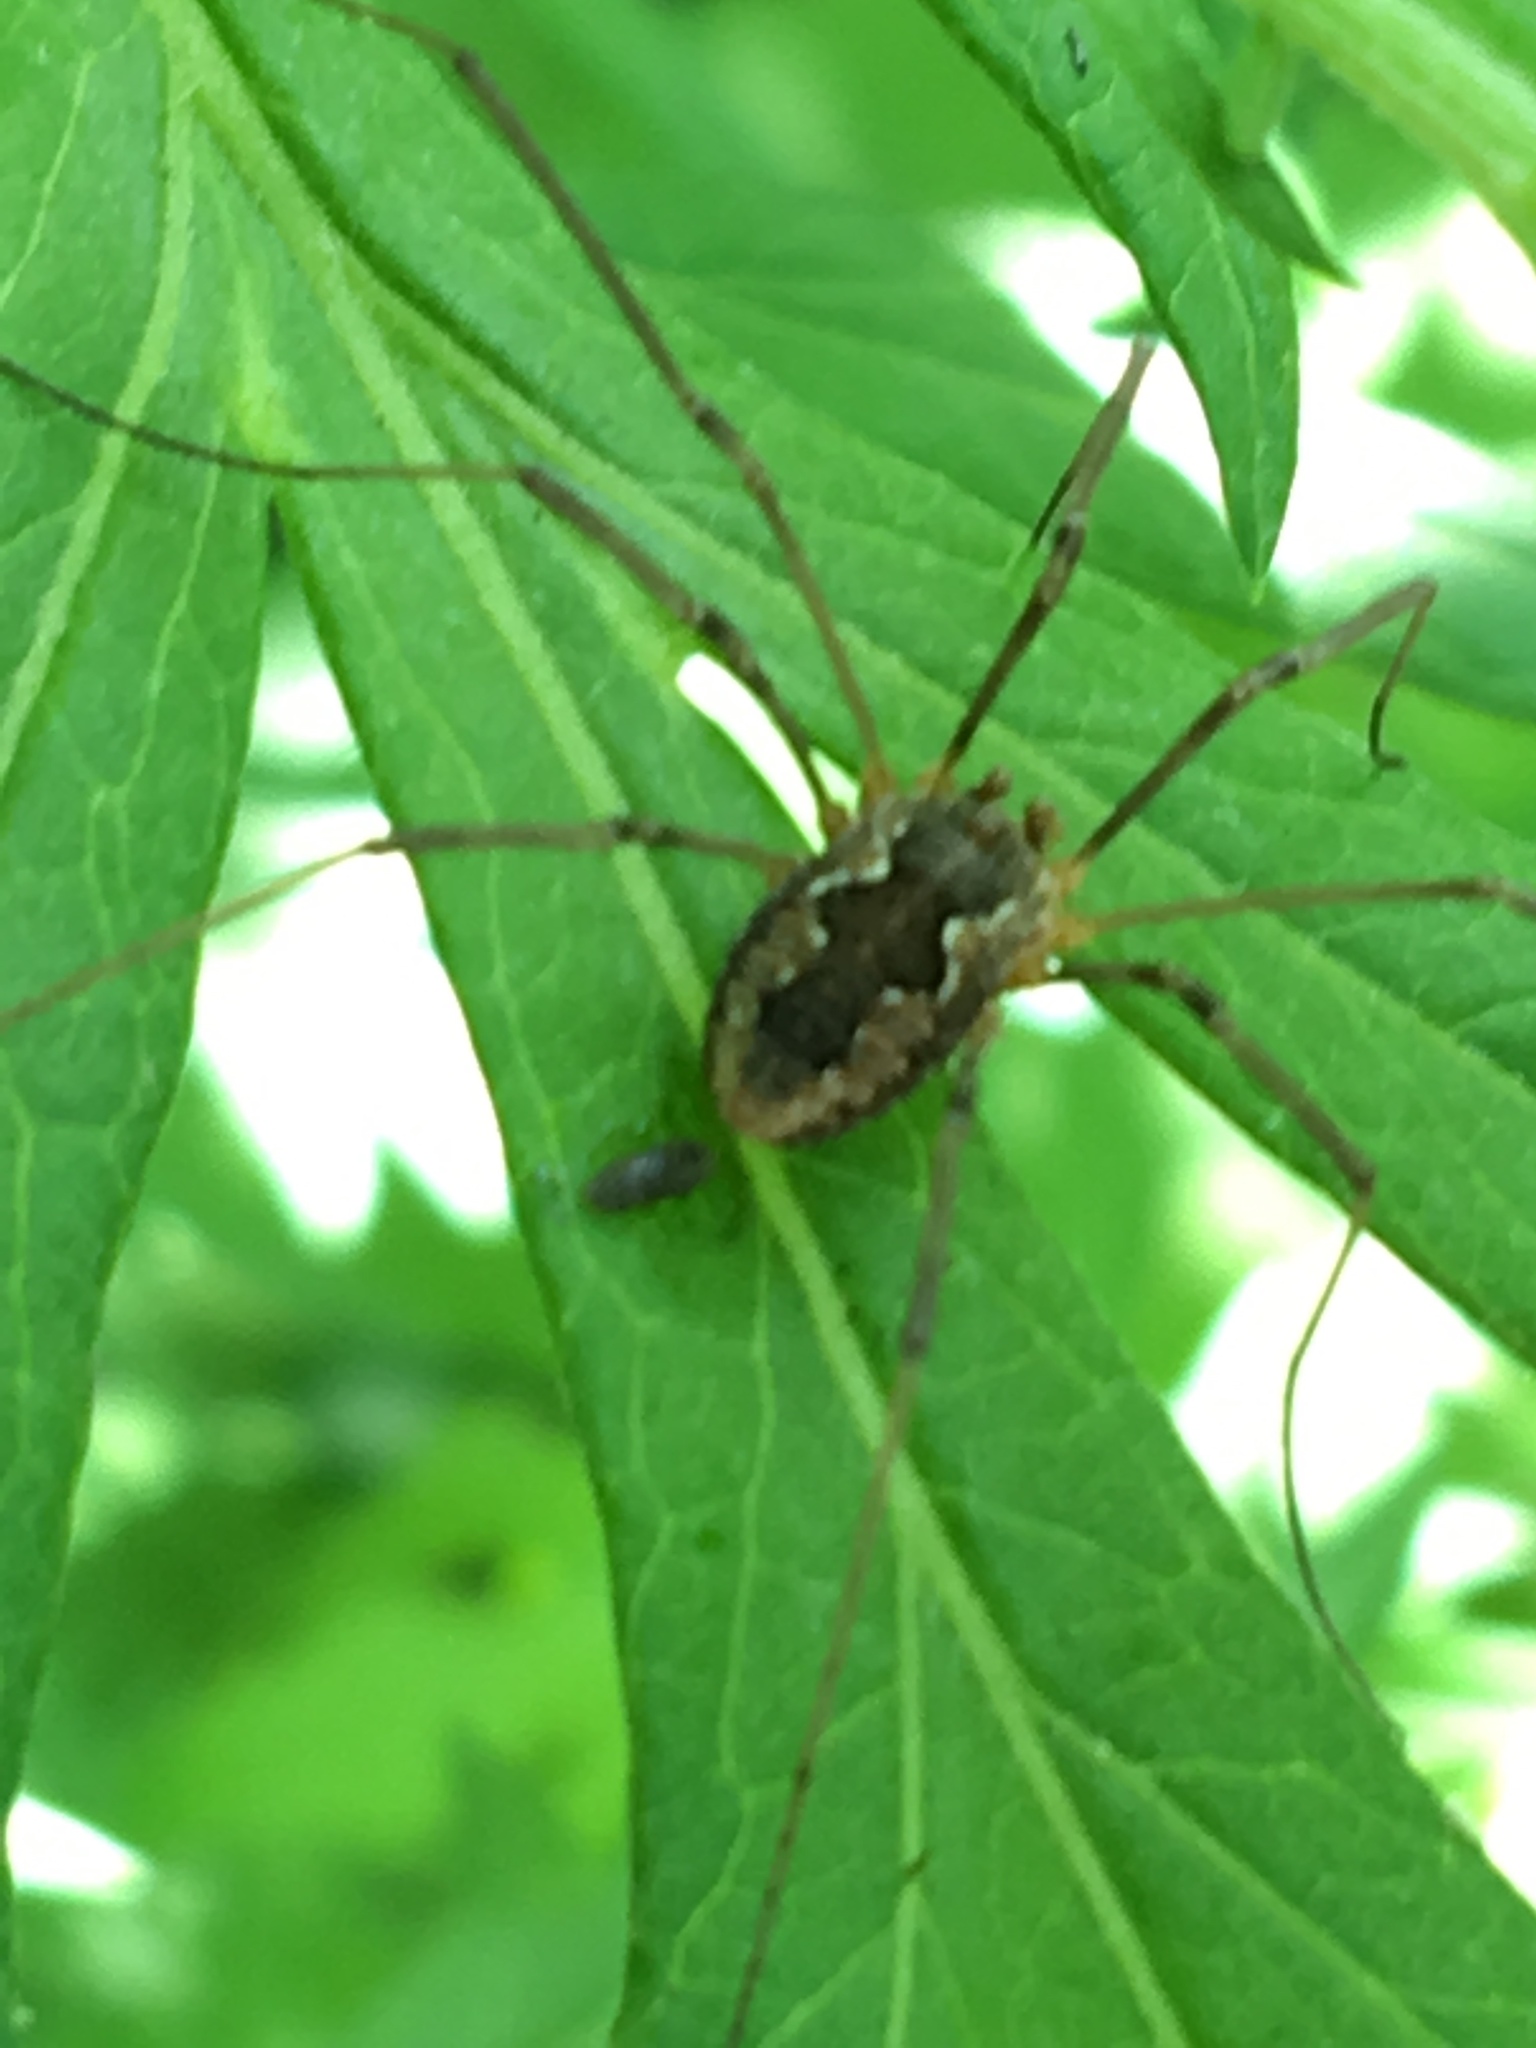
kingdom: Animalia
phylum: Arthropoda
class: Arachnida
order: Opiliones
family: Phalangiidae
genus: Phalangium
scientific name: Phalangium opilio
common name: Daddy longleg
